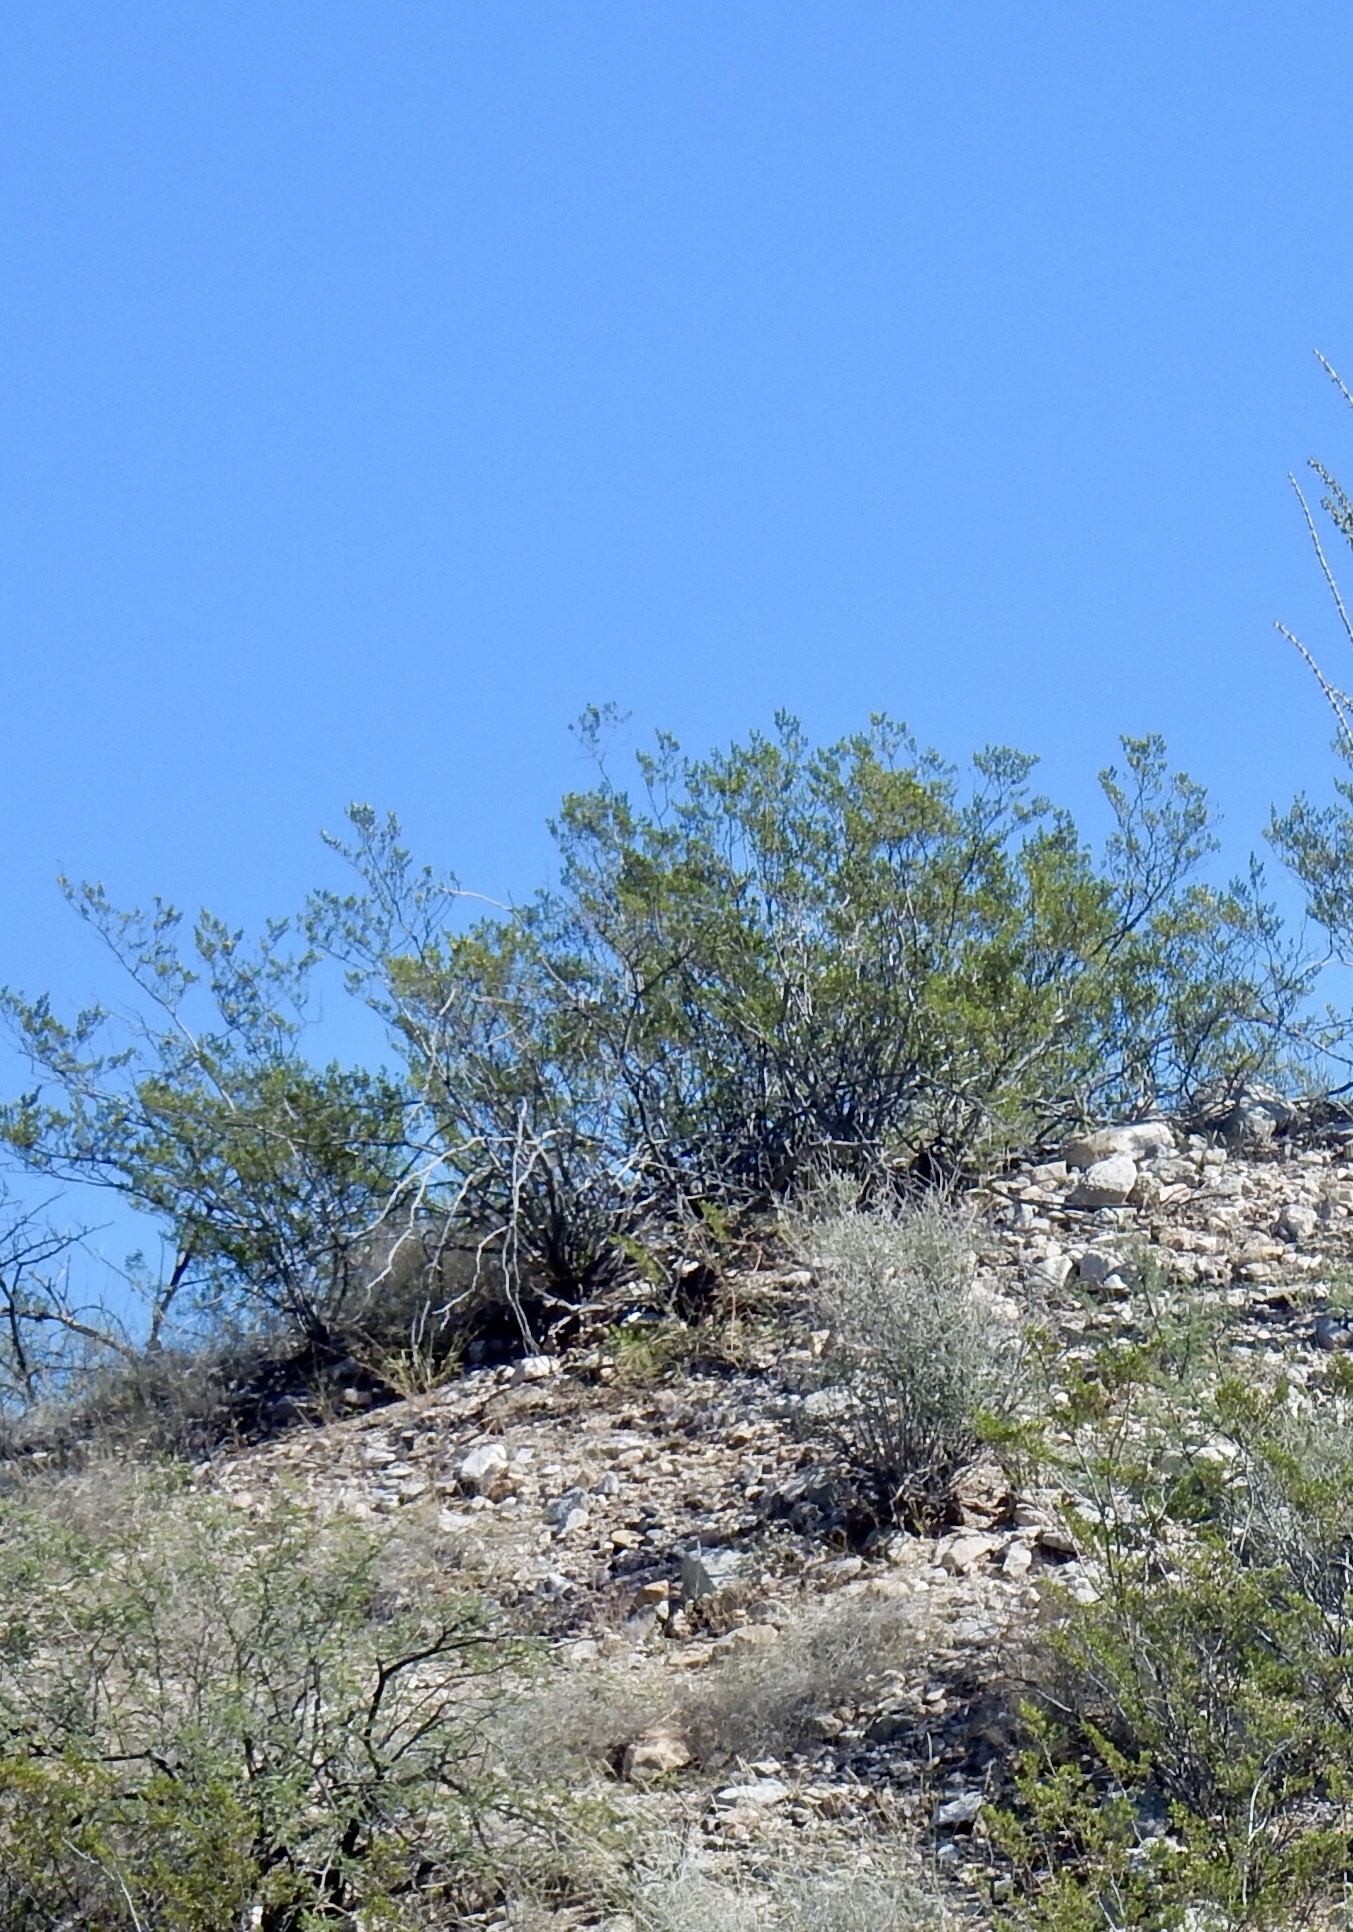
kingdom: Plantae
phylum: Tracheophyta
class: Magnoliopsida
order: Zygophyllales
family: Zygophyllaceae
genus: Larrea
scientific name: Larrea tridentata
